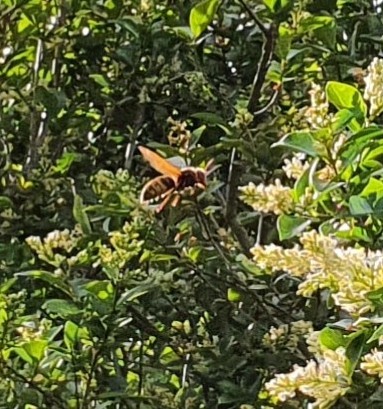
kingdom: Animalia
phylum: Arthropoda
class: Insecta
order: Hymenoptera
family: Vespidae
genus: Vespa
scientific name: Vespa crabro
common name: Hornet
